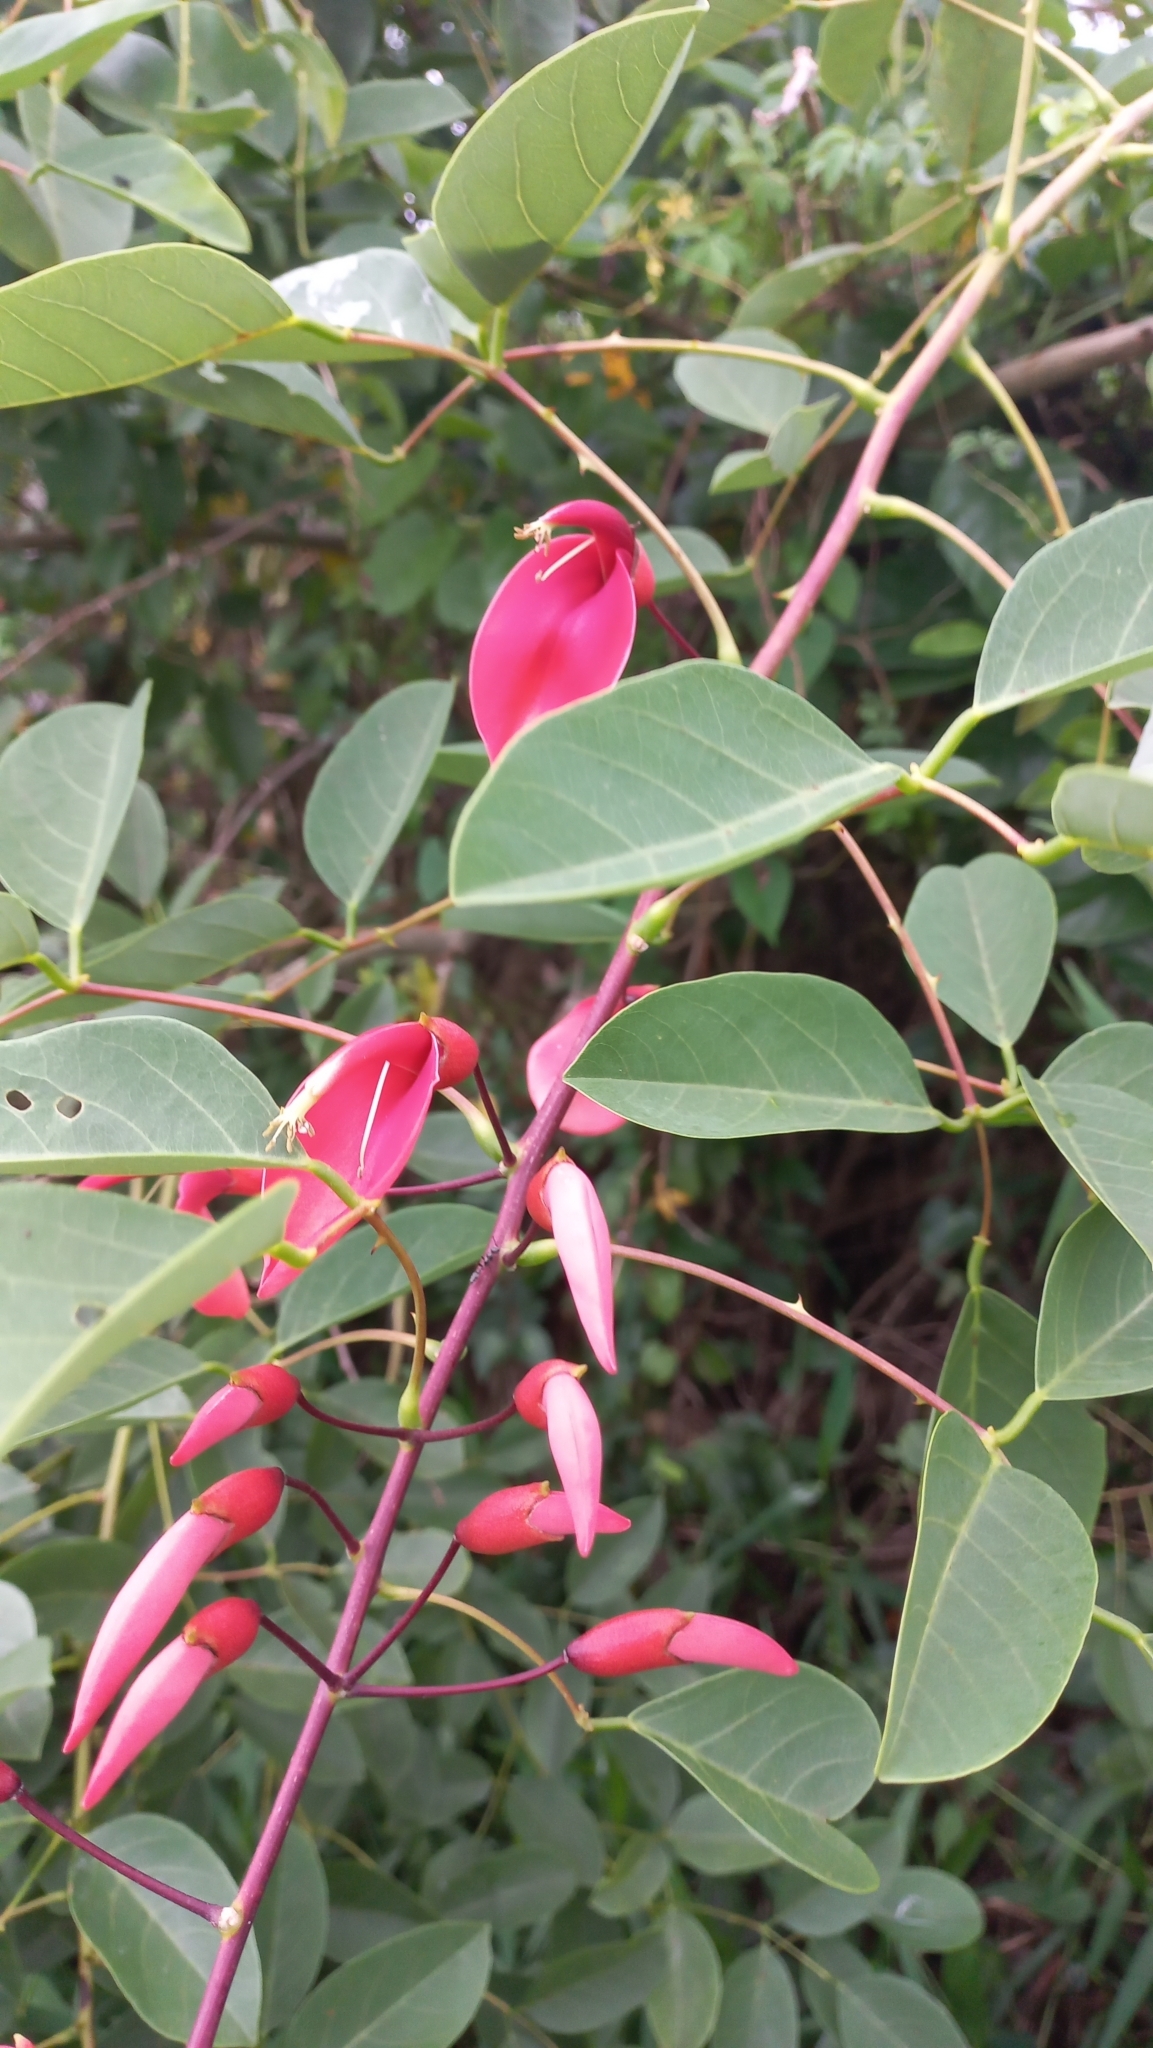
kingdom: Plantae
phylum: Tracheophyta
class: Magnoliopsida
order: Fabales
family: Fabaceae
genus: Erythrina
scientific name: Erythrina crista-galli
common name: Cockspur coral tree
